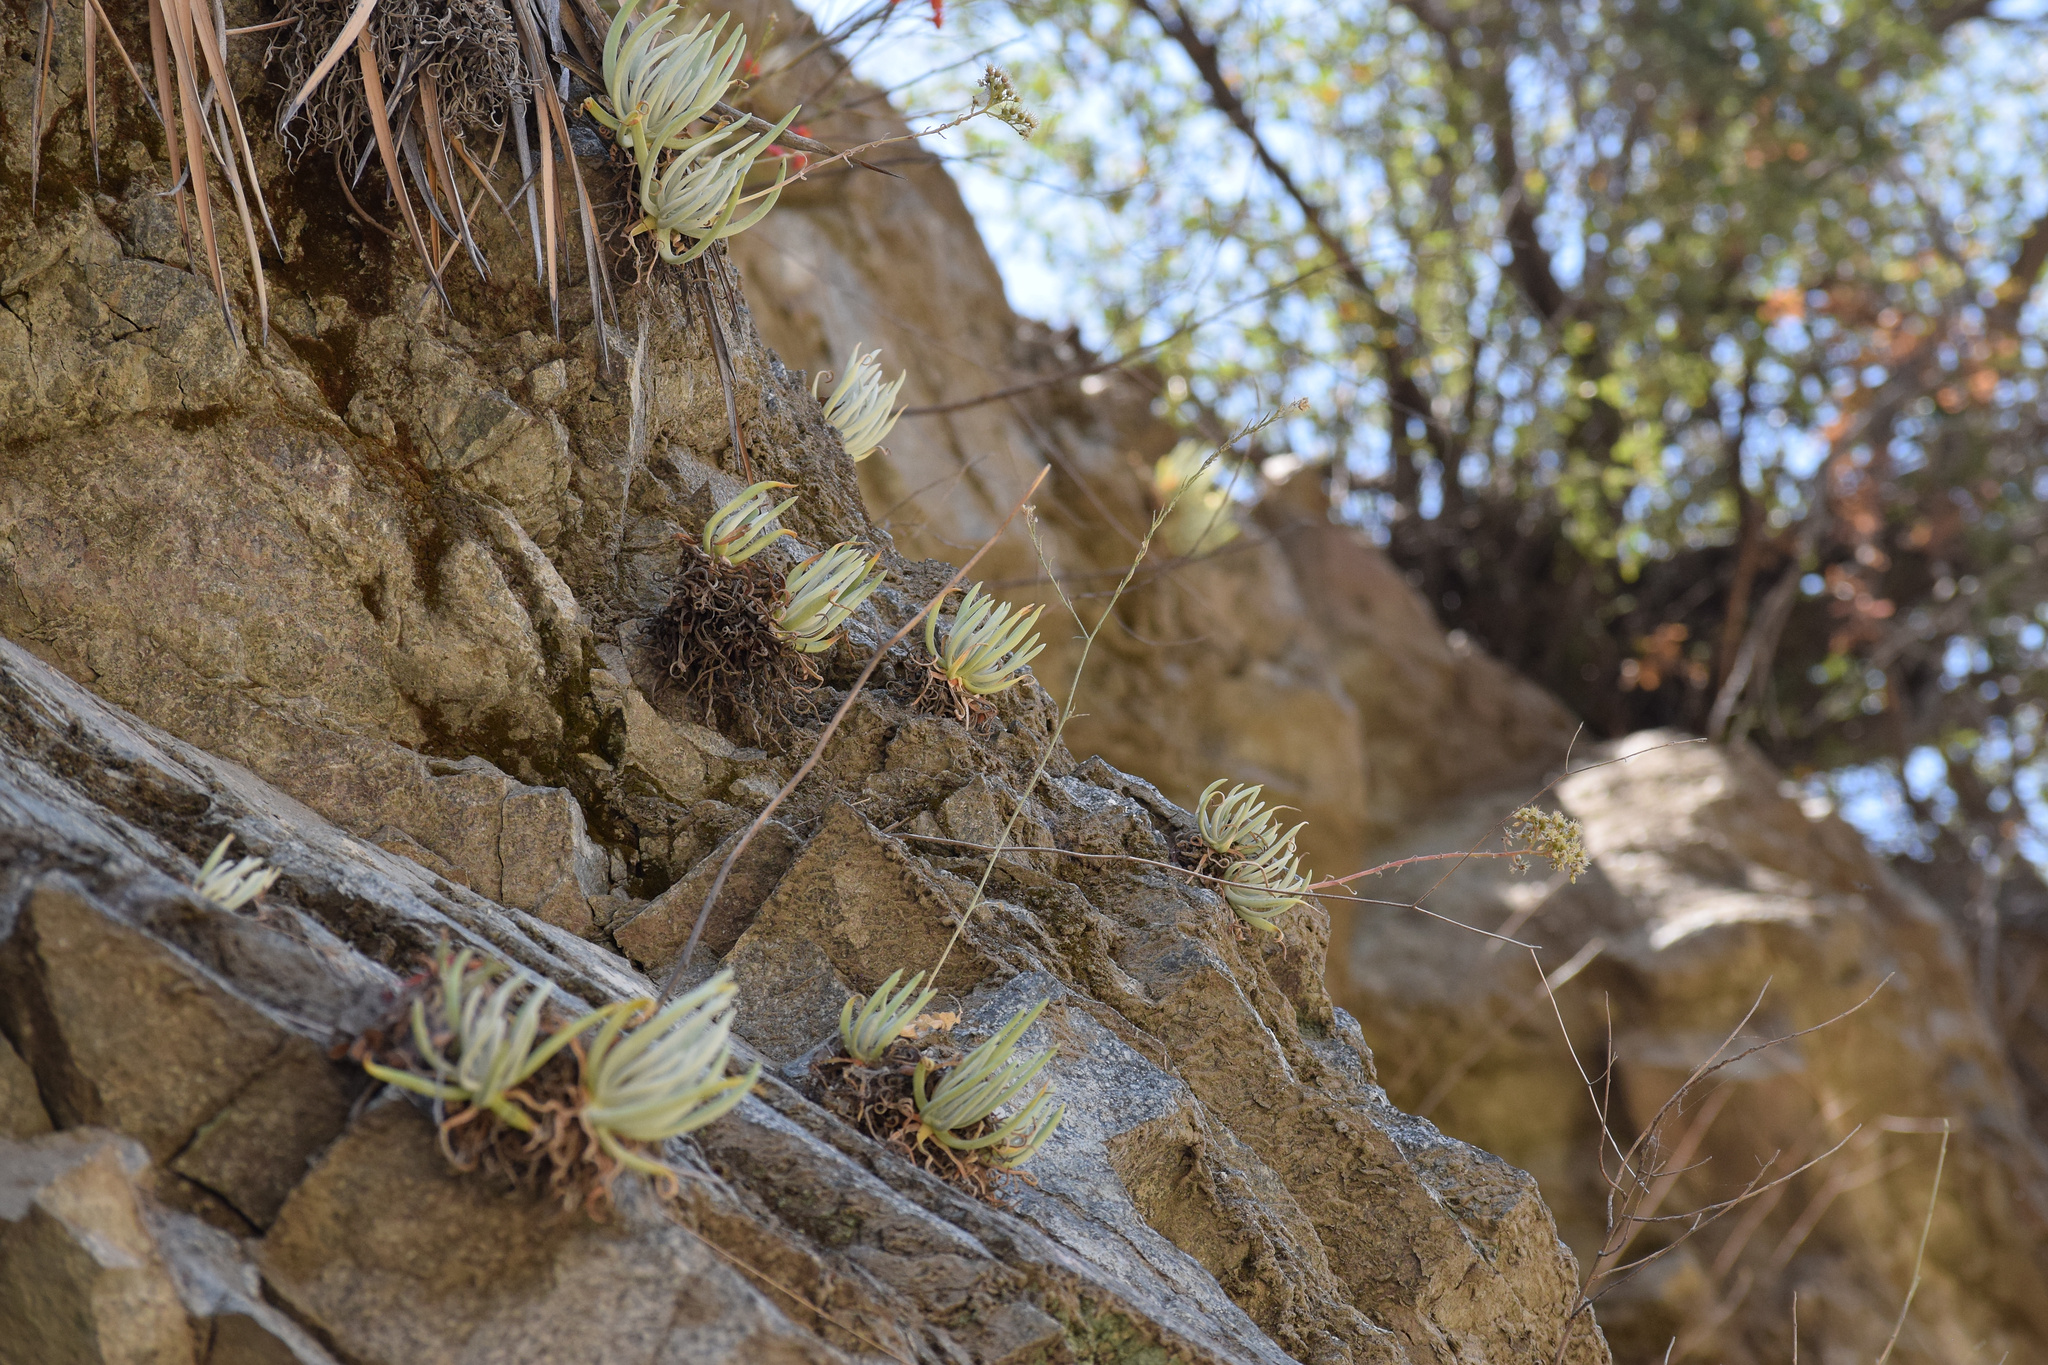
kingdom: Plantae
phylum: Tracheophyta
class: Magnoliopsida
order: Saxifragales
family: Crassulaceae
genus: Dudleya
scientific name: Dudleya densiflora
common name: San gabriel mountains dudleya
